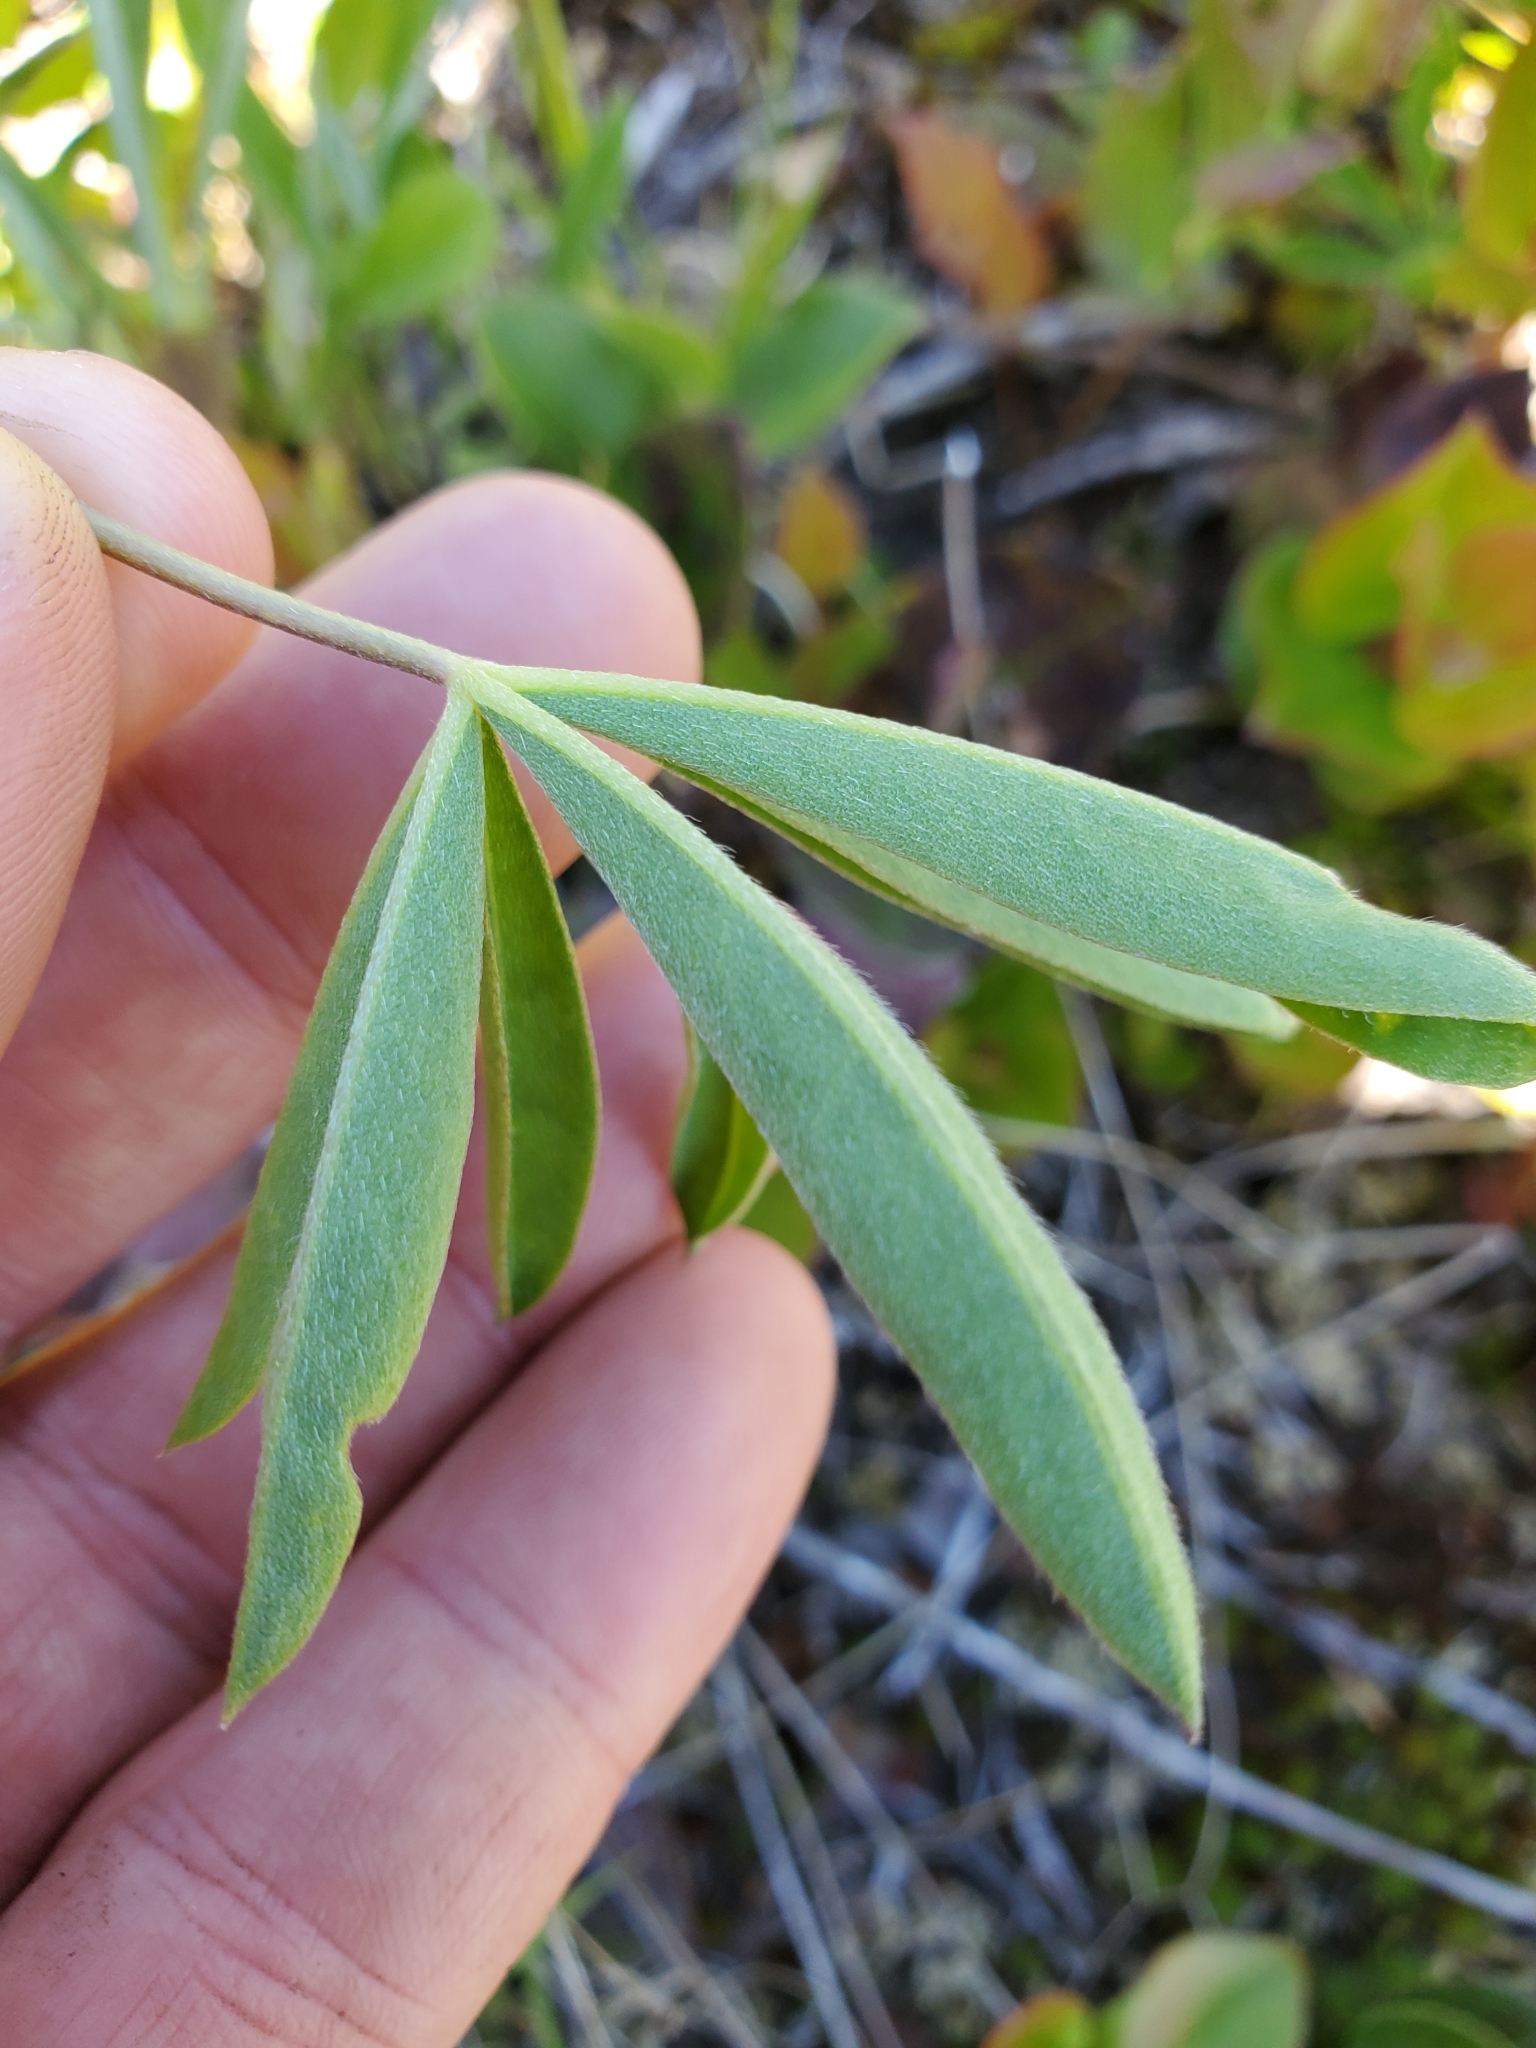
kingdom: Plantae
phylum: Tracheophyta
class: Magnoliopsida
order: Fabales
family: Fabaceae
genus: Lupinus
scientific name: Lupinus latifolius
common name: Broad-leaved lupine
